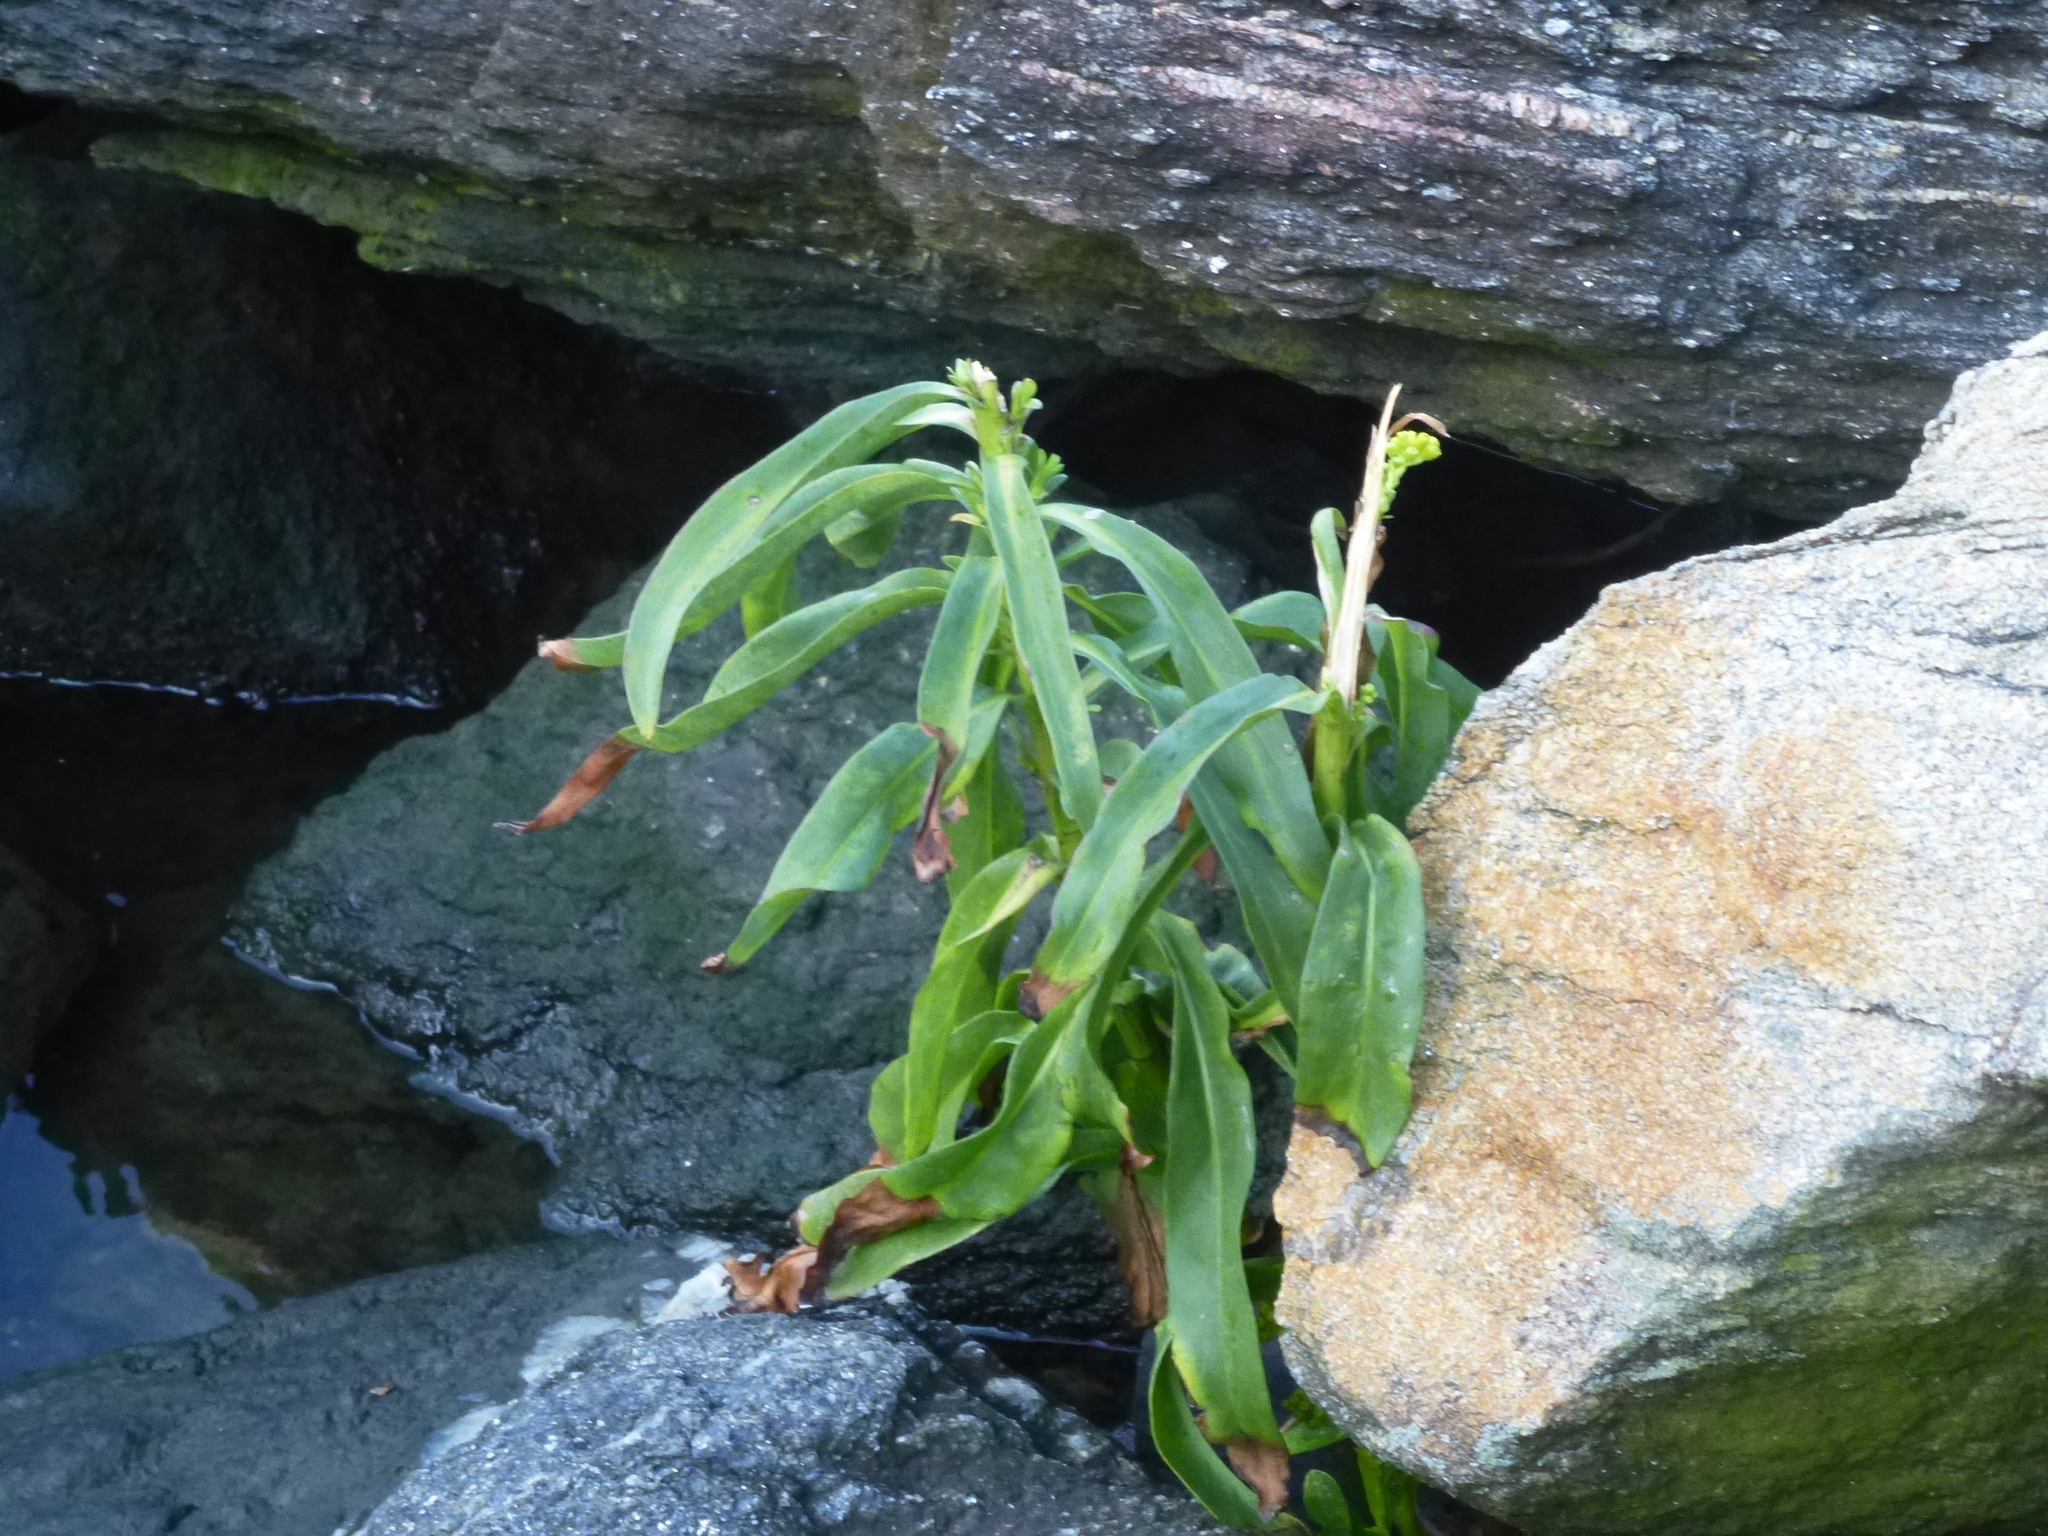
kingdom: Plantae
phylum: Tracheophyta
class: Magnoliopsida
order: Asterales
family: Asteraceae
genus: Solidago
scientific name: Solidago sempervirens
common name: Salt-marsh goldenrod
